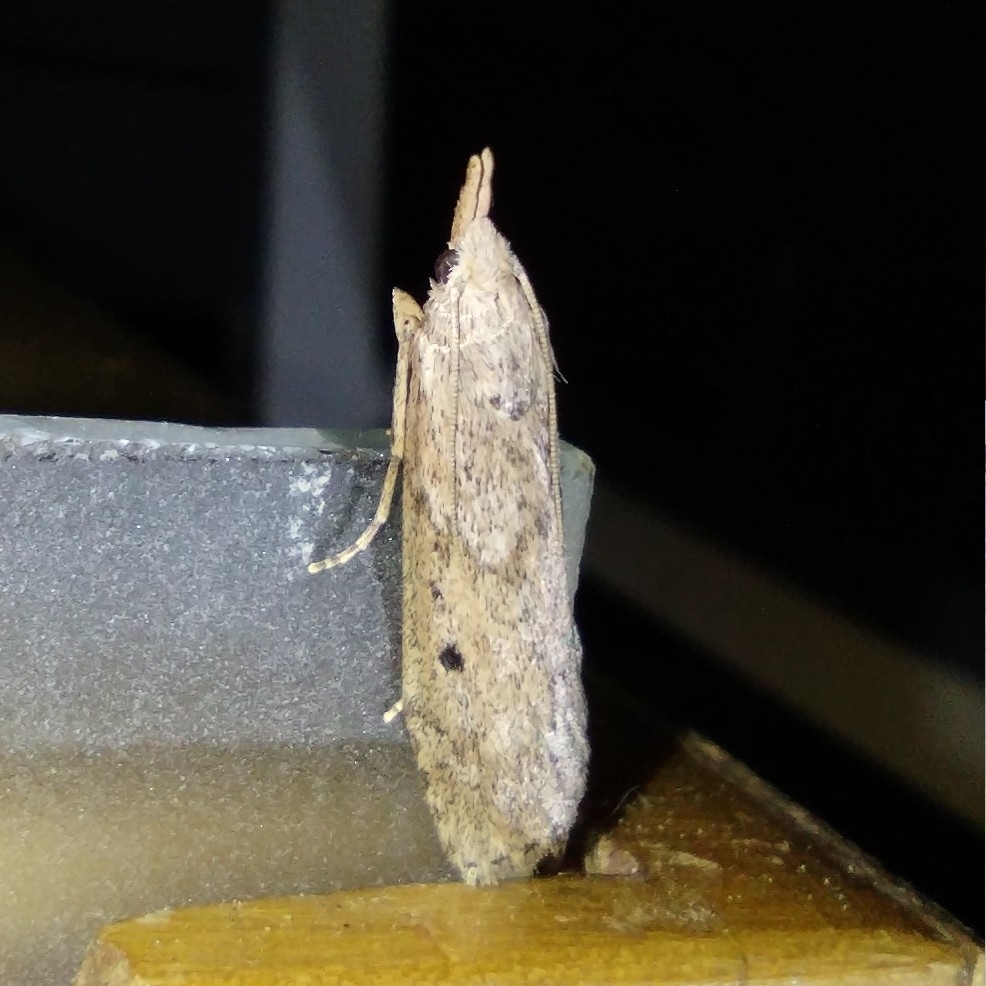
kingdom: Animalia
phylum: Arthropoda
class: Insecta
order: Lepidoptera
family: Pyralidae
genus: Aphomia
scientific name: Aphomia sociella
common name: Bee moth
